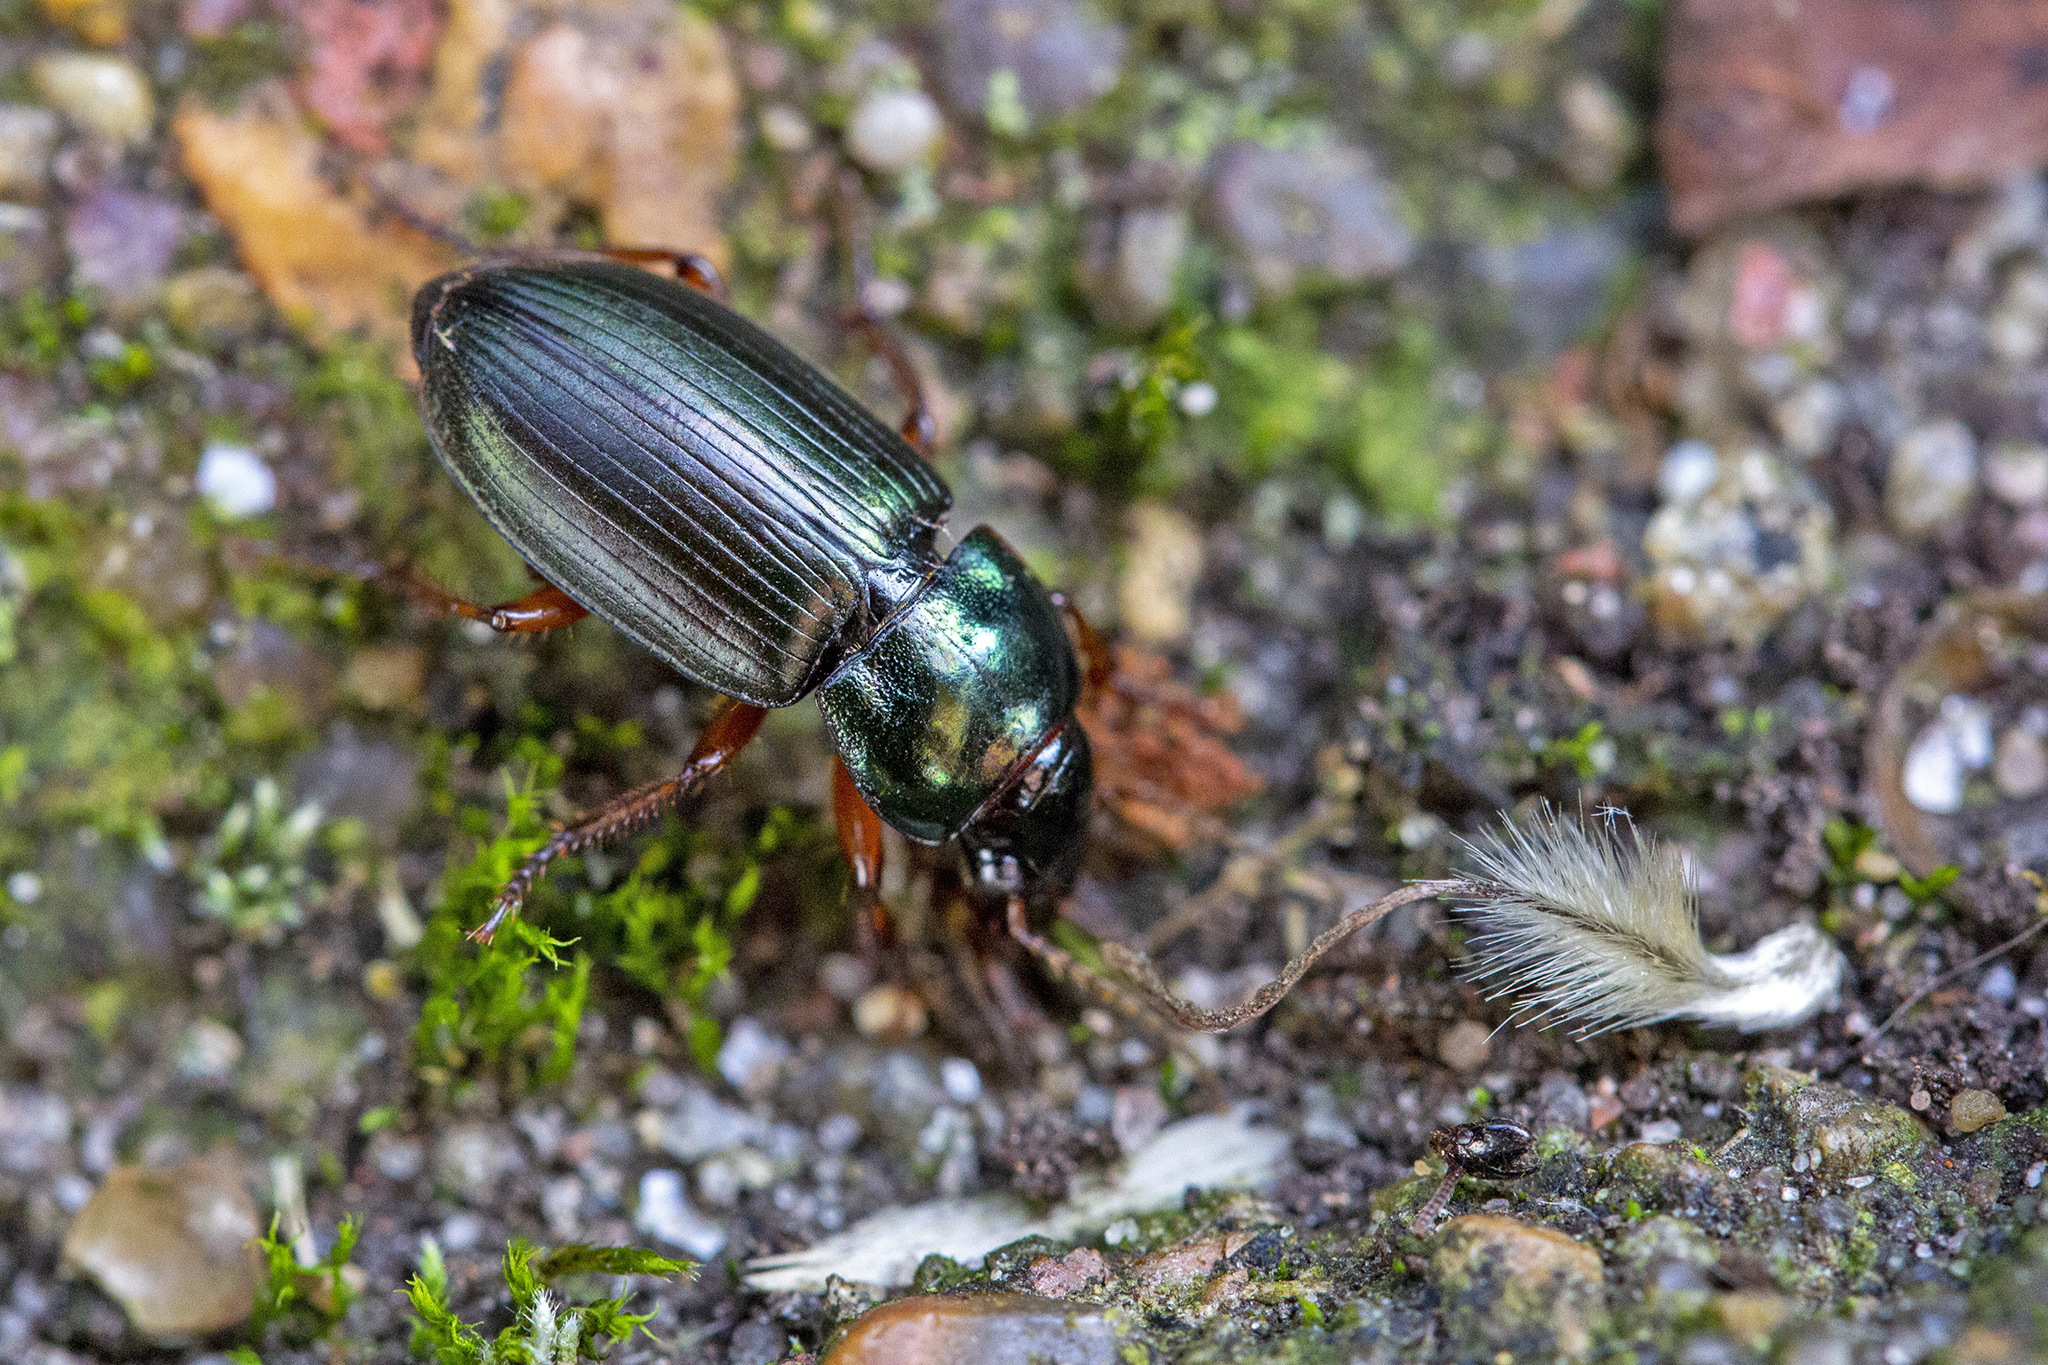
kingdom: Animalia
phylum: Arthropoda
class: Insecta
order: Coleoptera
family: Carabidae
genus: Harpalus
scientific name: Harpalus affinis
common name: Polychrome harp ground beetle
